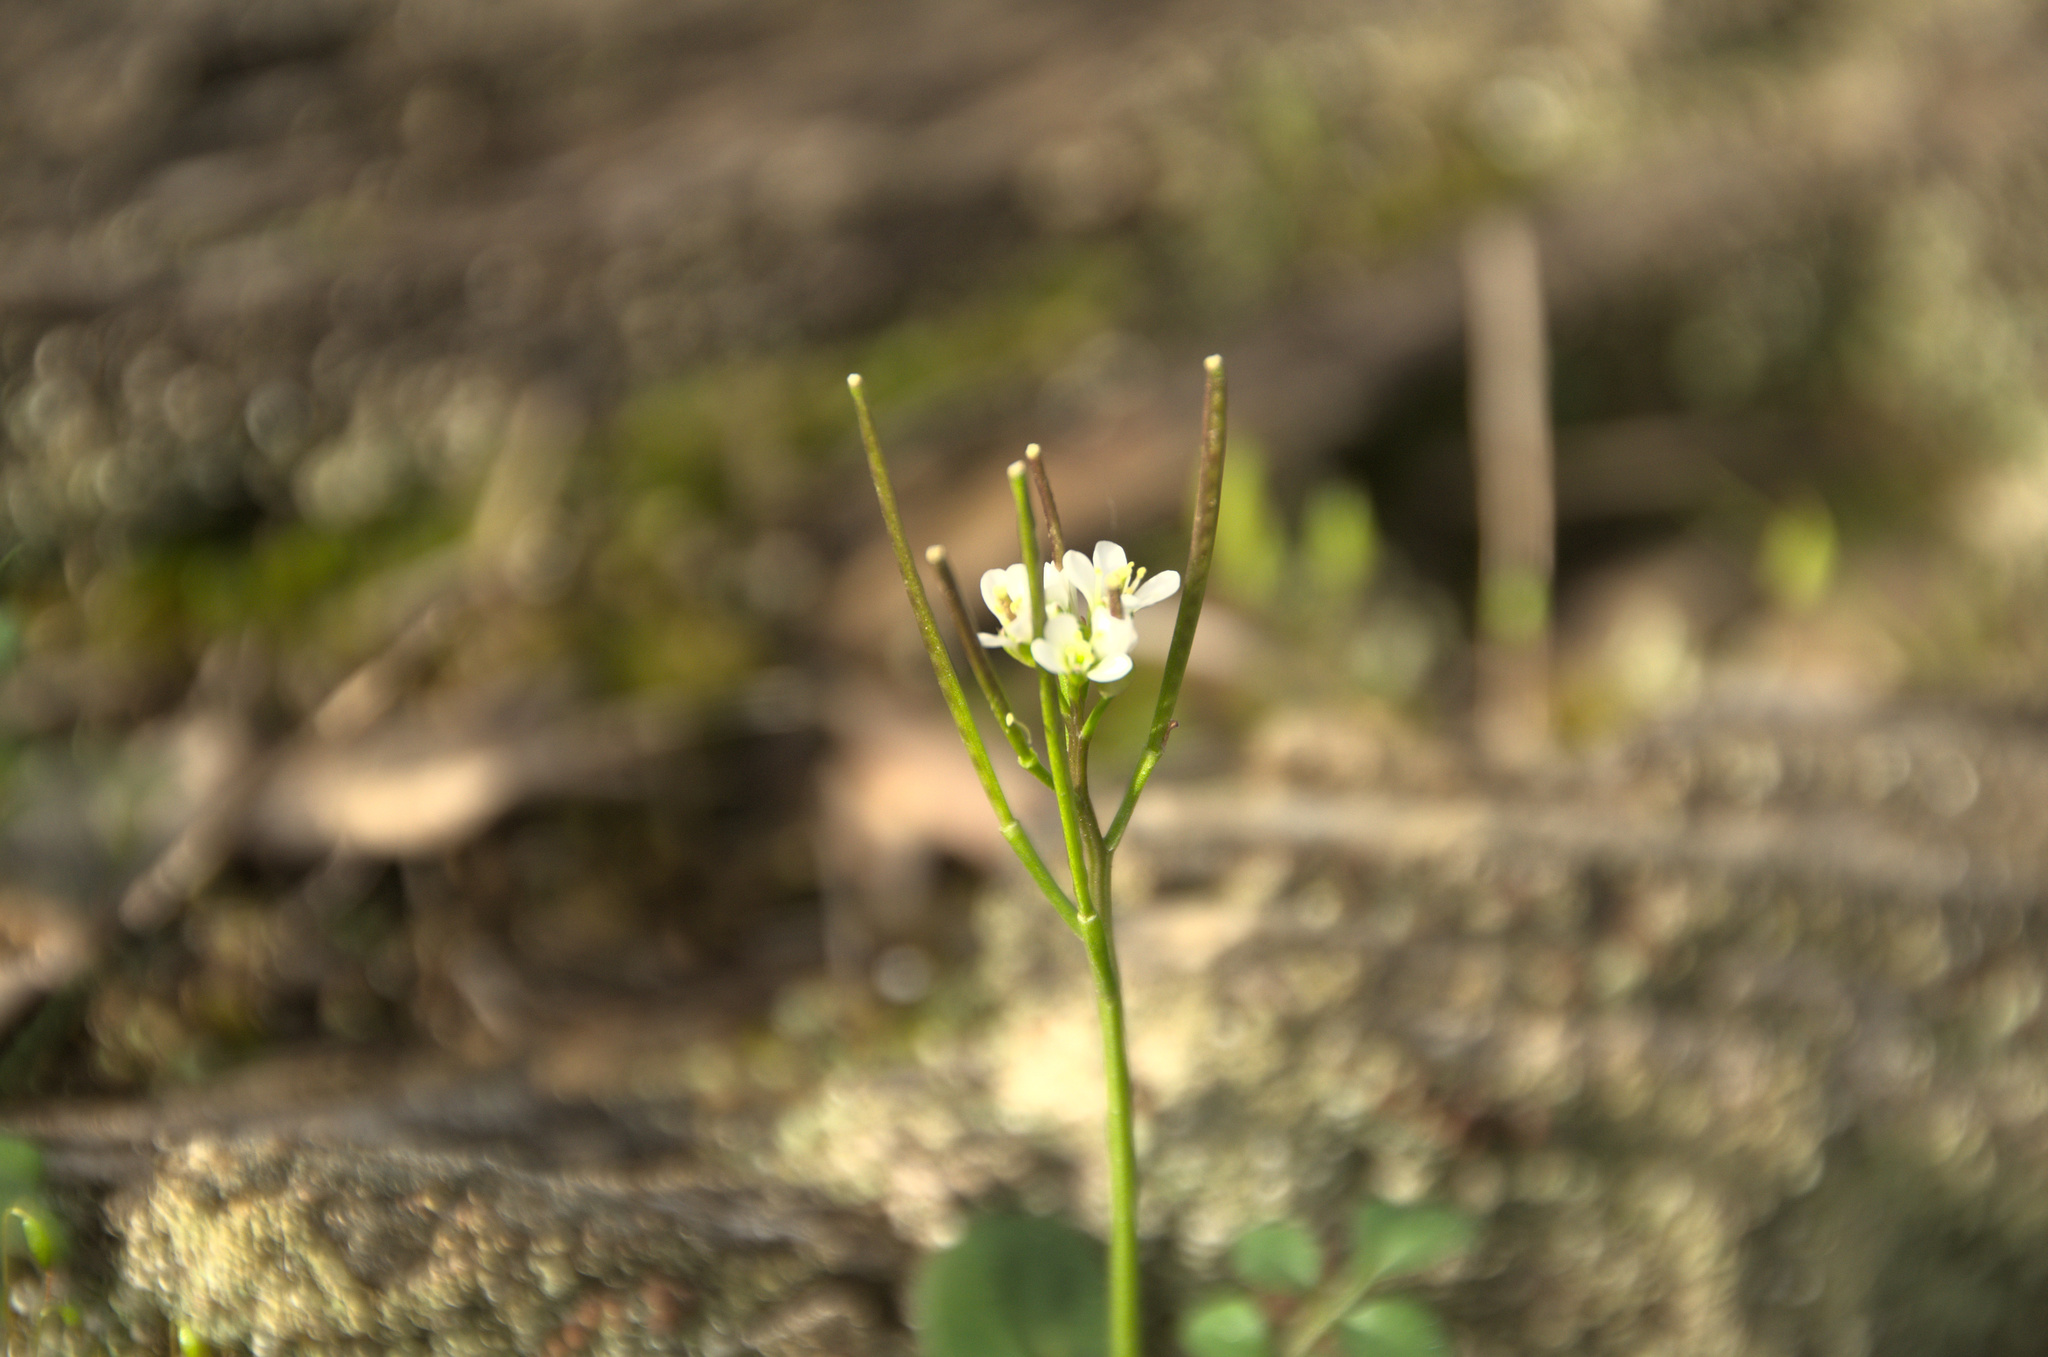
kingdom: Plantae
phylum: Tracheophyta
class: Magnoliopsida
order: Brassicales
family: Brassicaceae
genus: Cardamine
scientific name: Cardamine hirsuta
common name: Hairy bittercress
